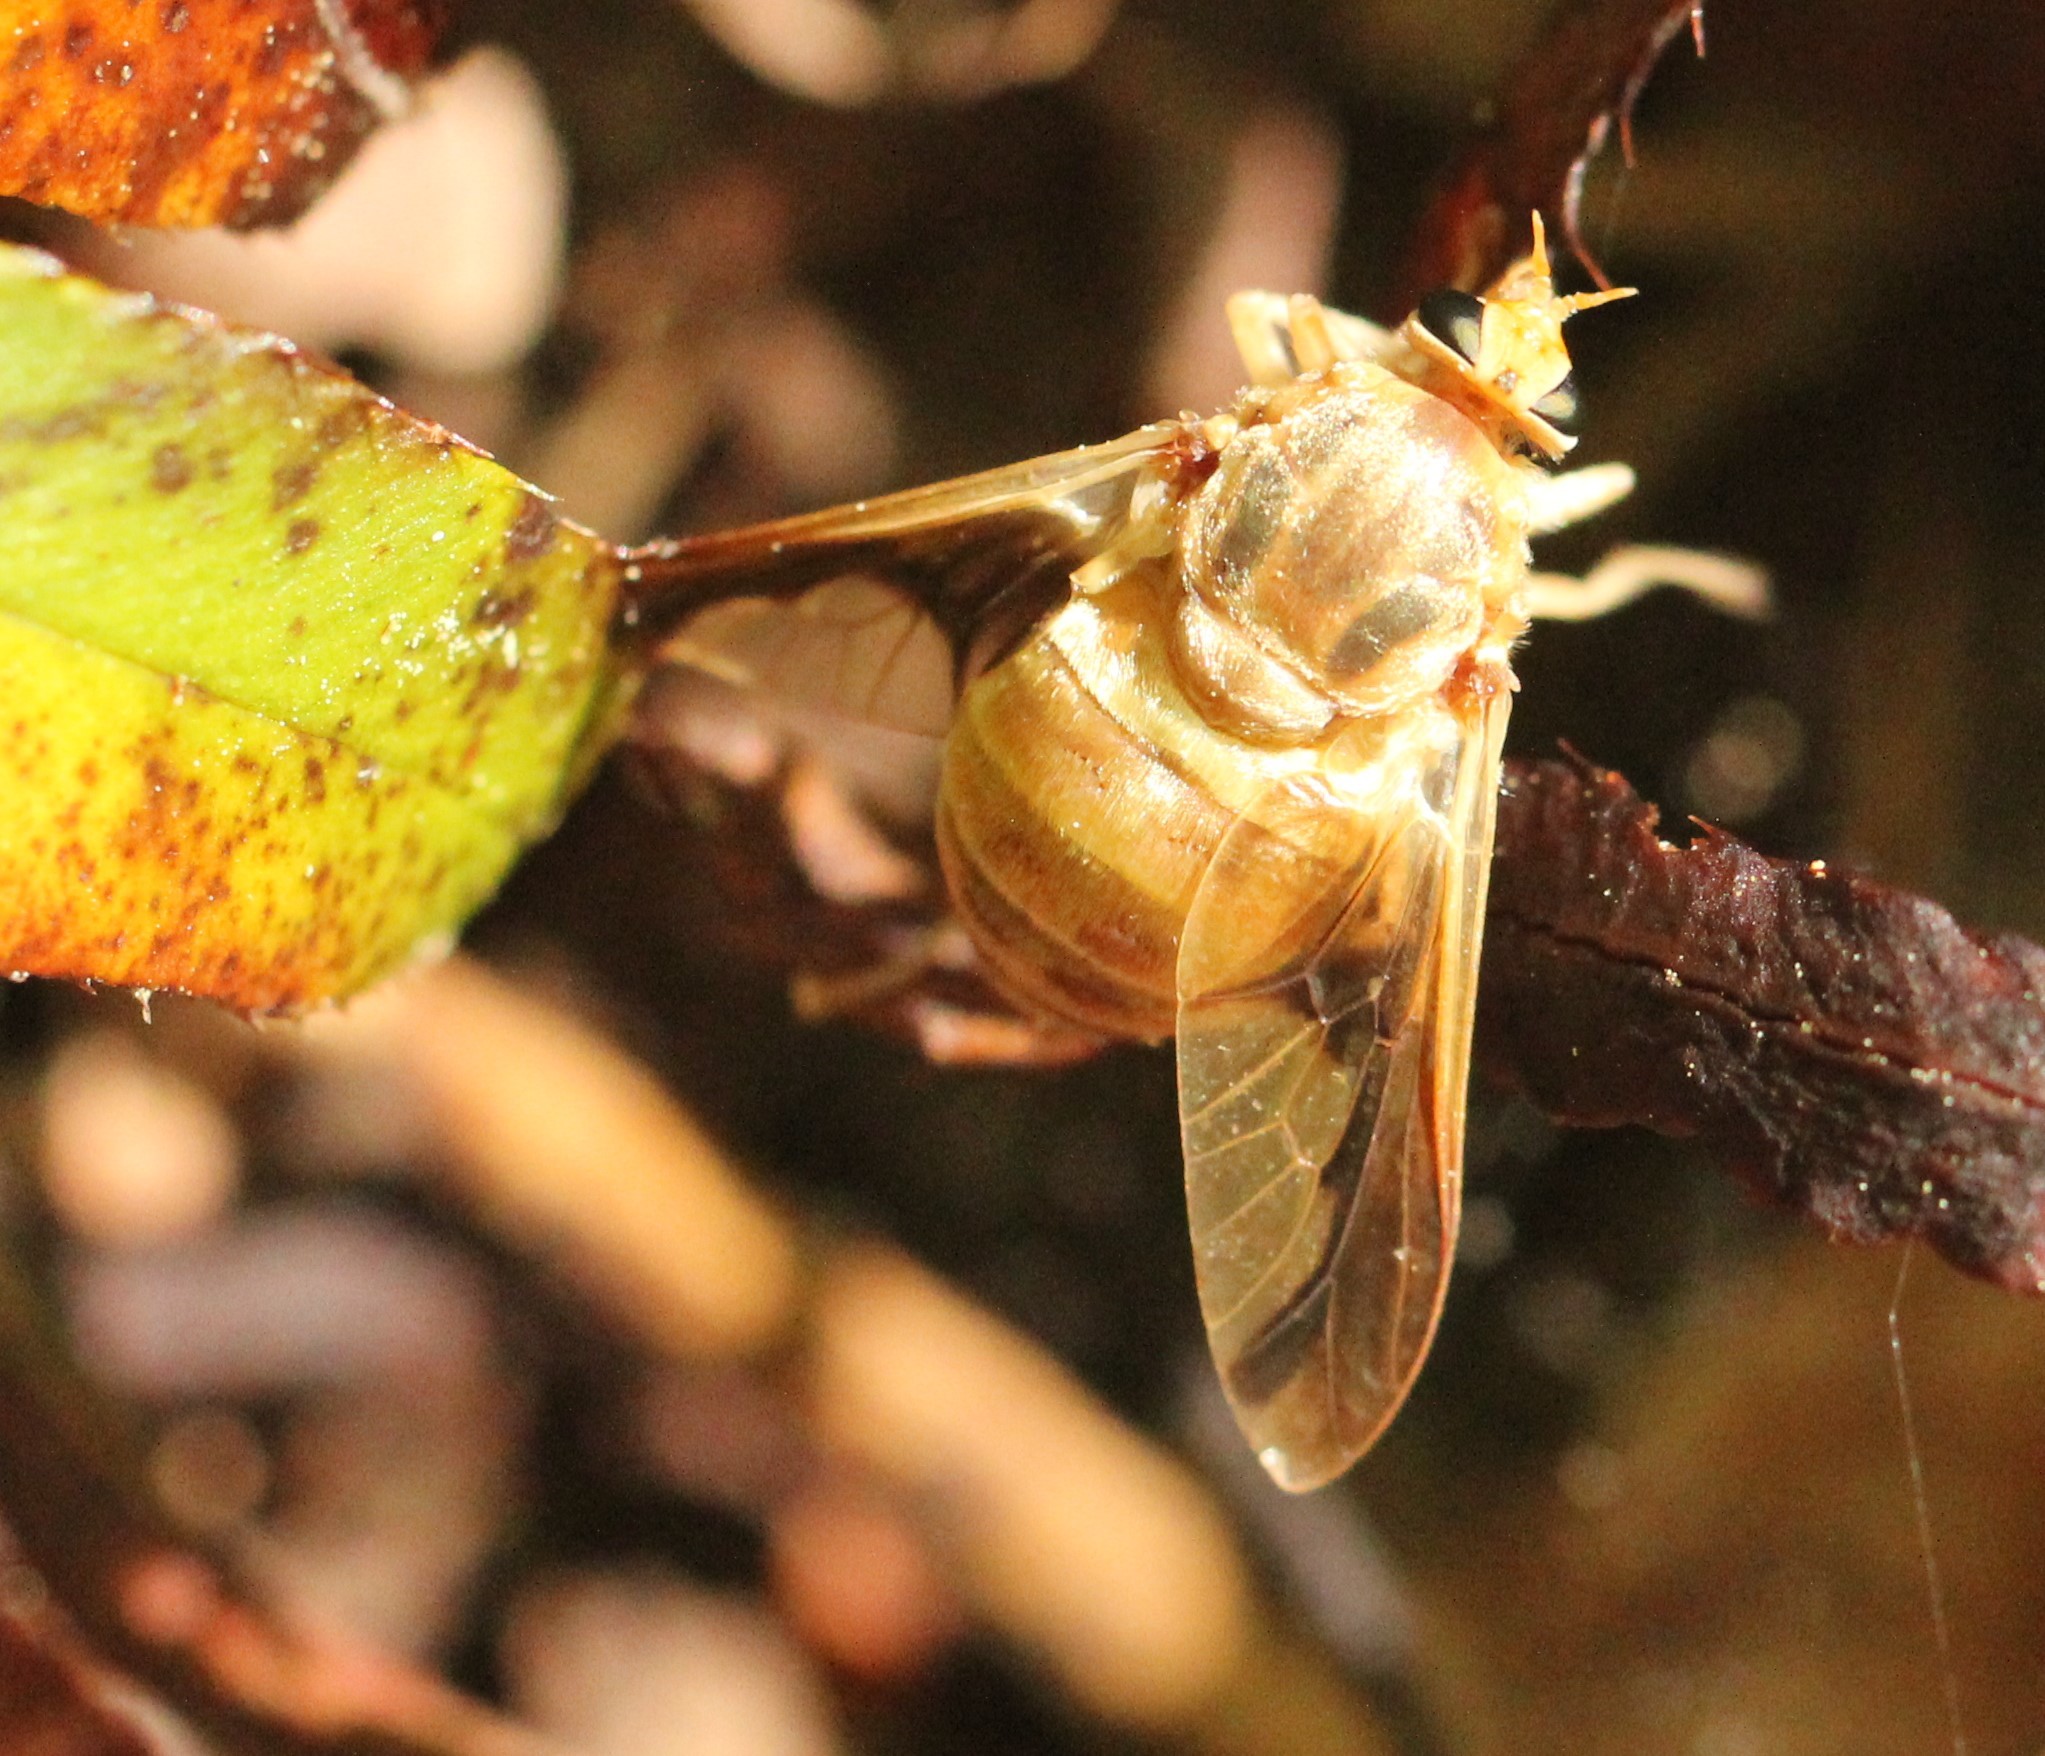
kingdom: Animalia
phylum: Arthropoda
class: Insecta
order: Diptera
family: Tabanidae
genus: Goniops
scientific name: Goniops chrysocoma
